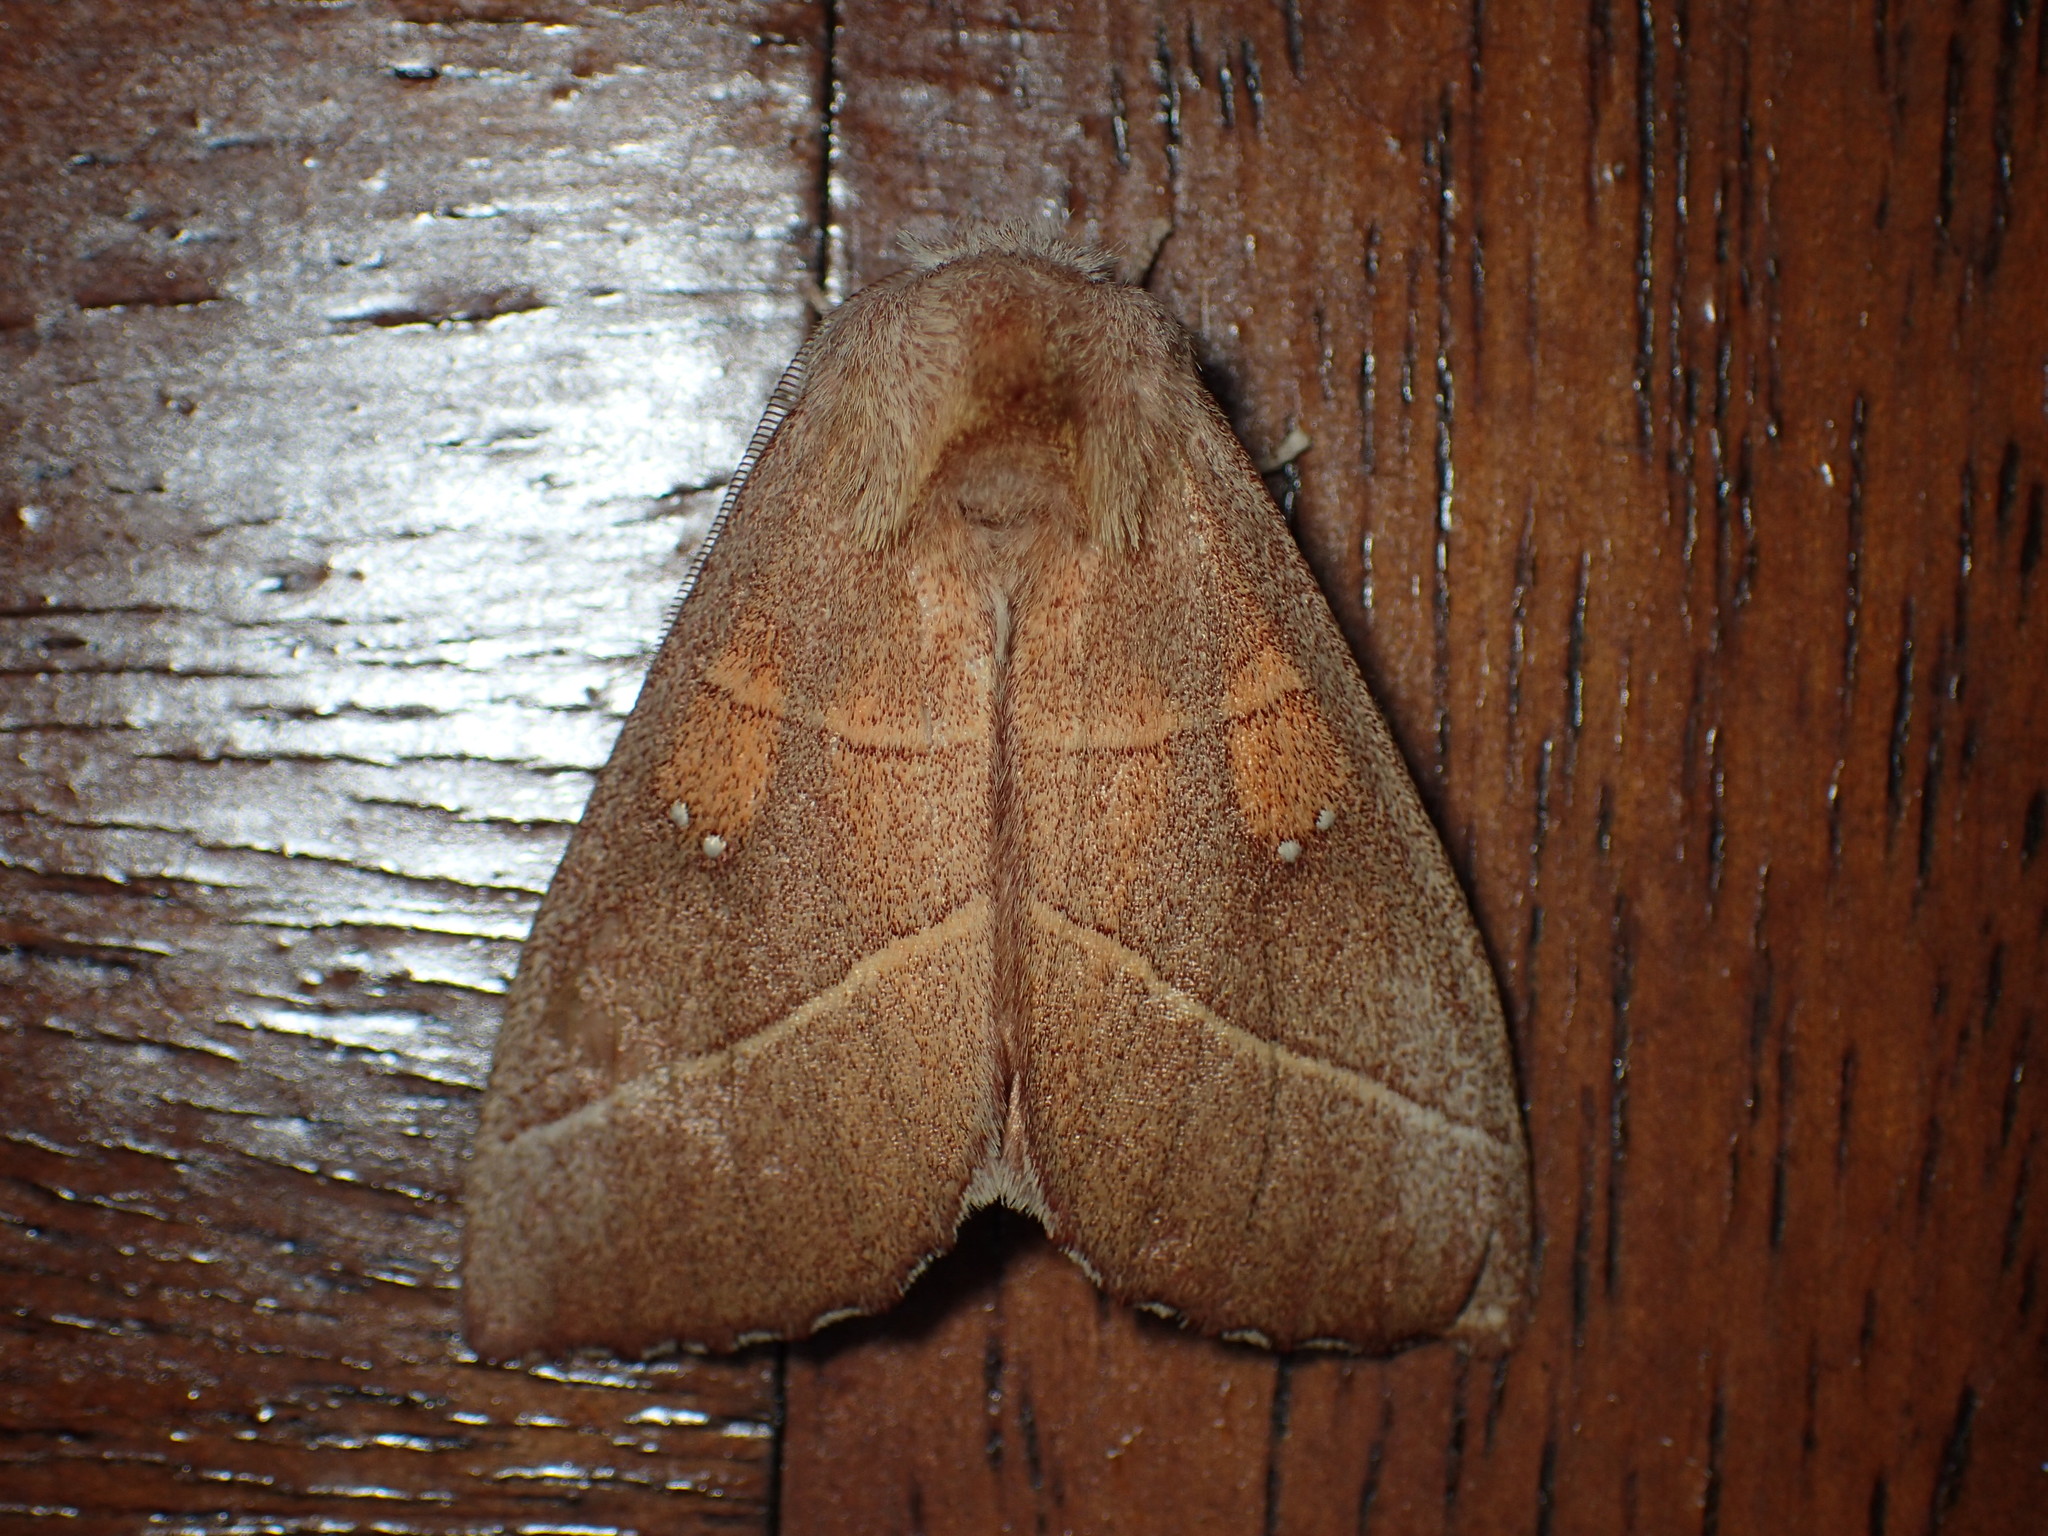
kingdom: Animalia
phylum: Arthropoda
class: Insecta
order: Lepidoptera
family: Notodontidae
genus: Nadata
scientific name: Nadata gibbosa
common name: White-dotted prominent
